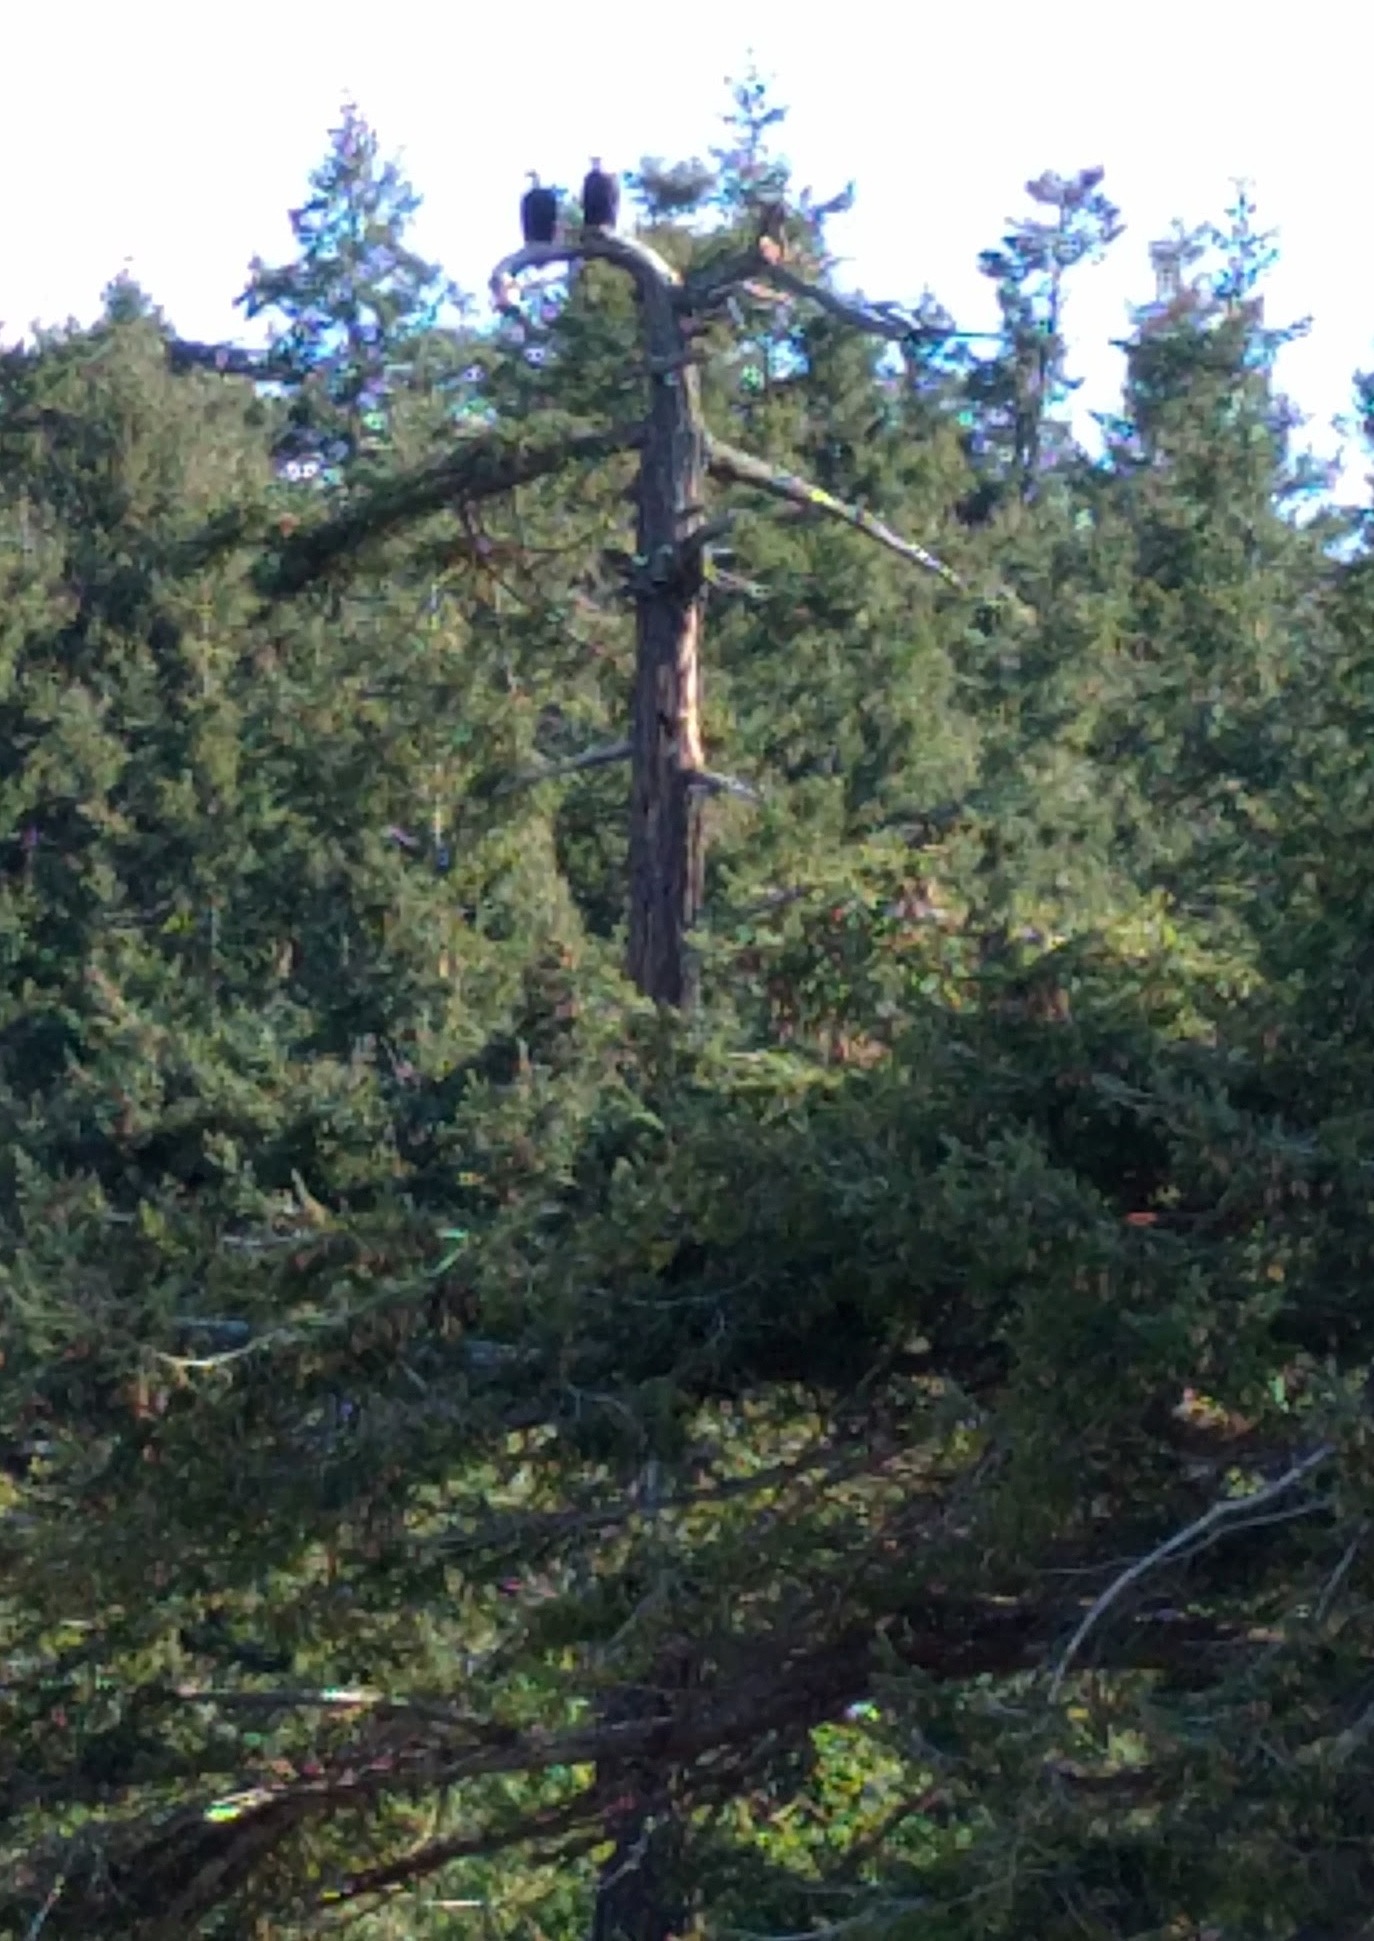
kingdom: Animalia
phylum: Chordata
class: Aves
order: Accipitriformes
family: Accipitridae
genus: Haliaeetus
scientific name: Haliaeetus leucocephalus
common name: Bald eagle
